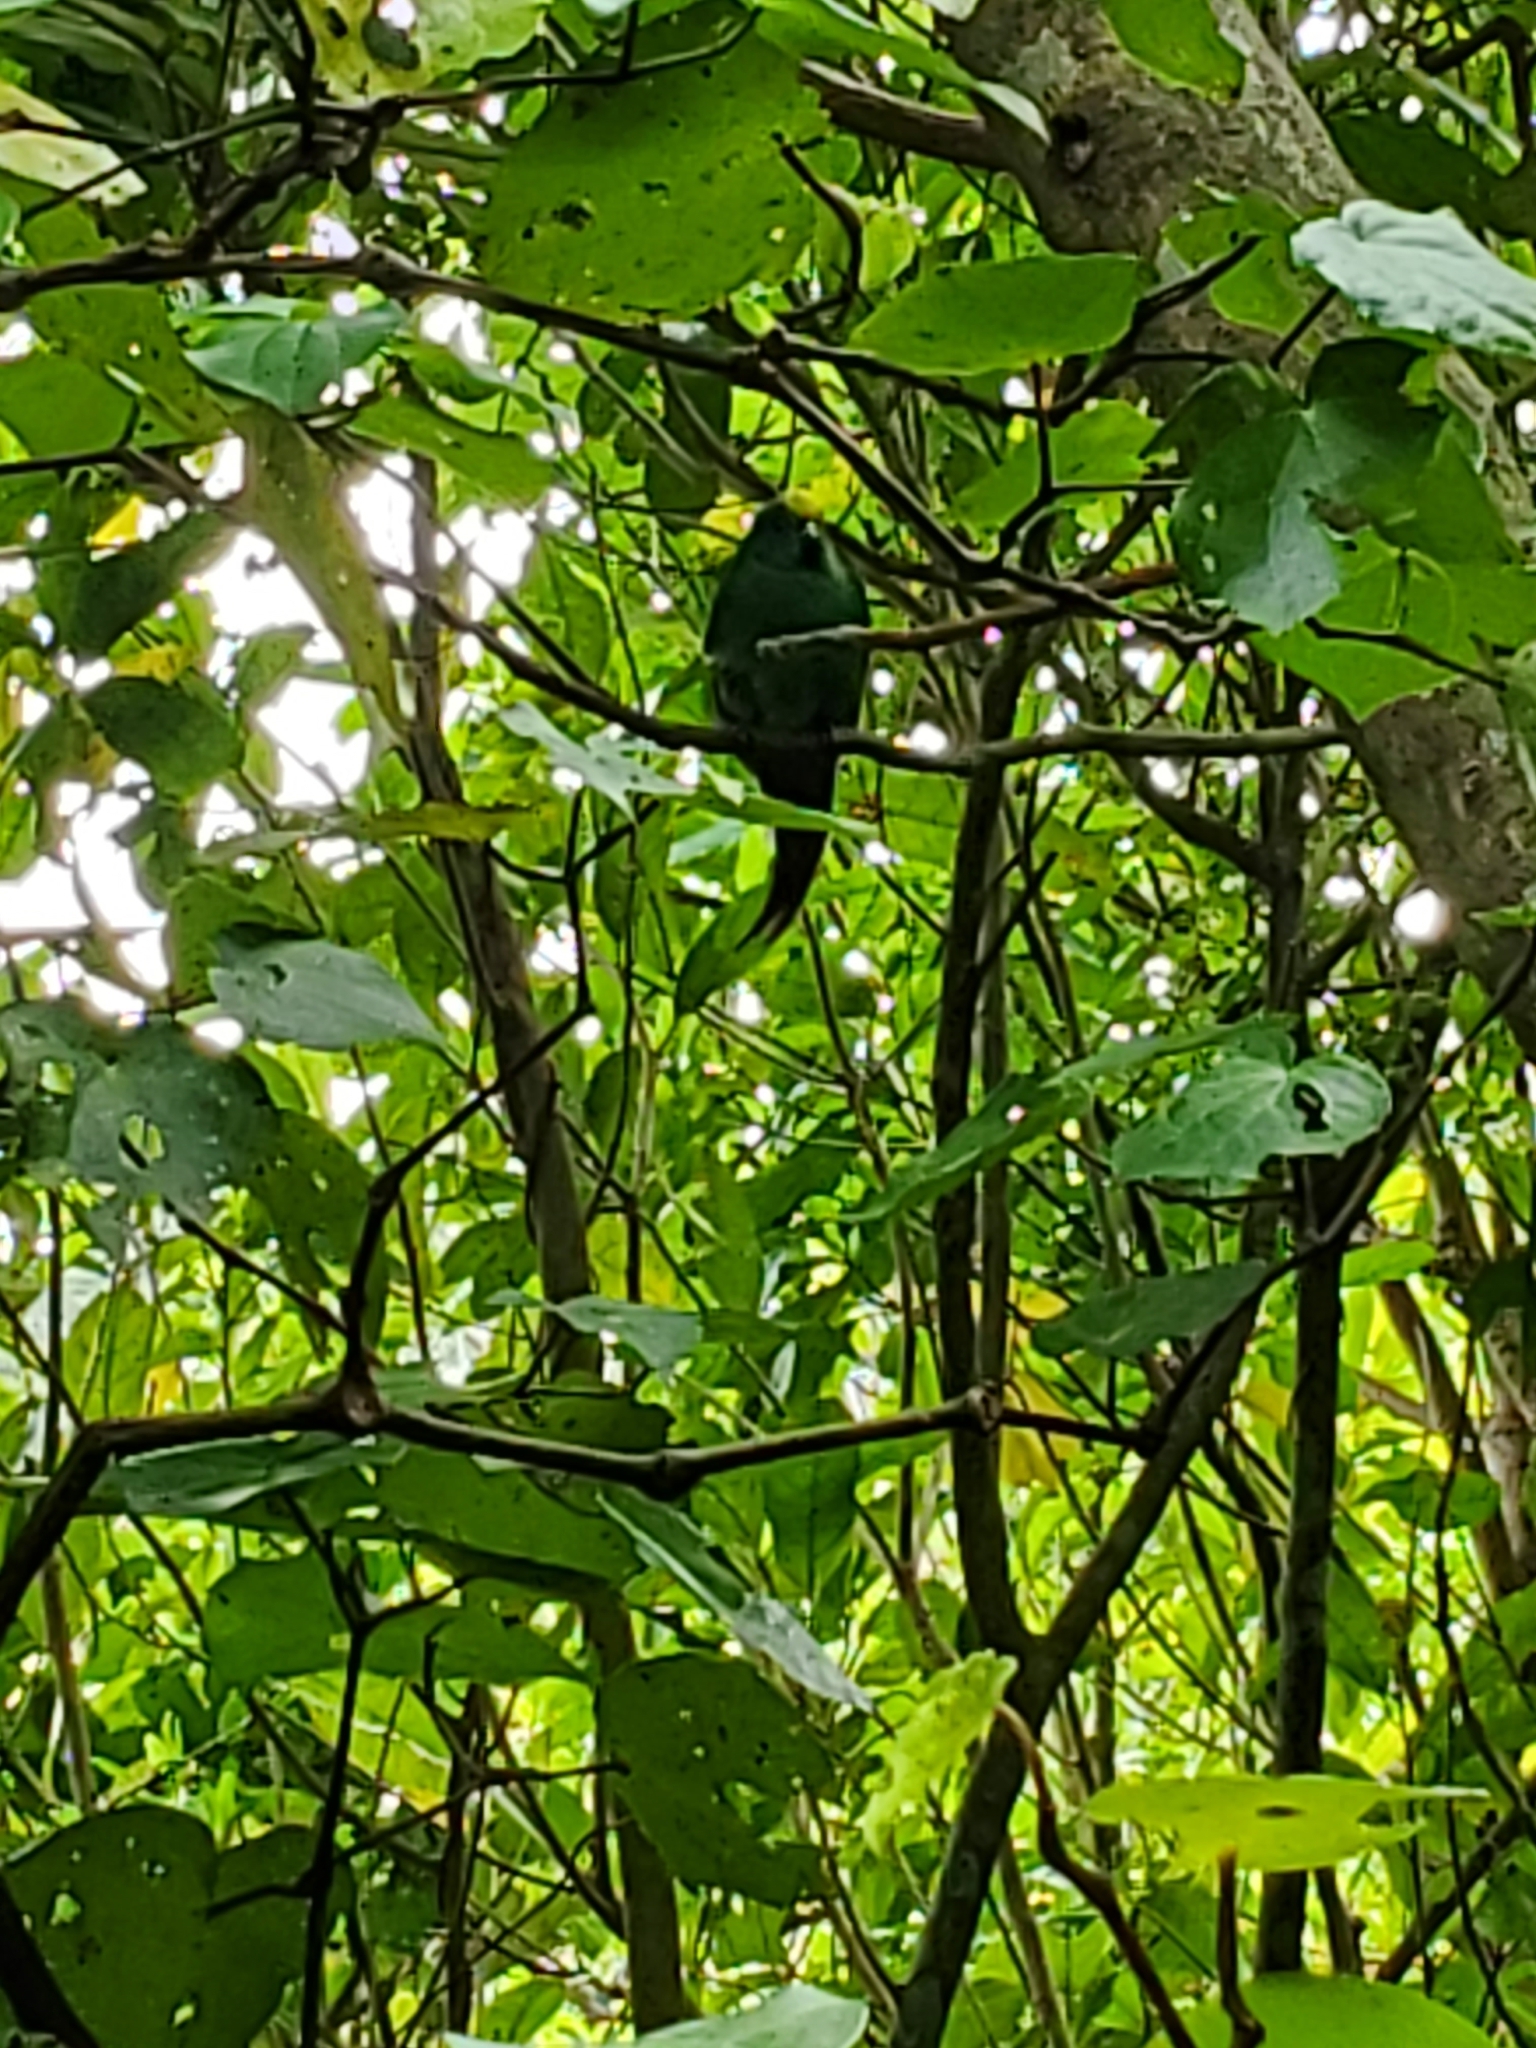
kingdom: Animalia
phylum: Chordata
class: Aves
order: Psittaciformes
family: Psittacidae
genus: Cyanoramphus
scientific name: Cyanoramphus malherbi
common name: Malherbe's parakeet
